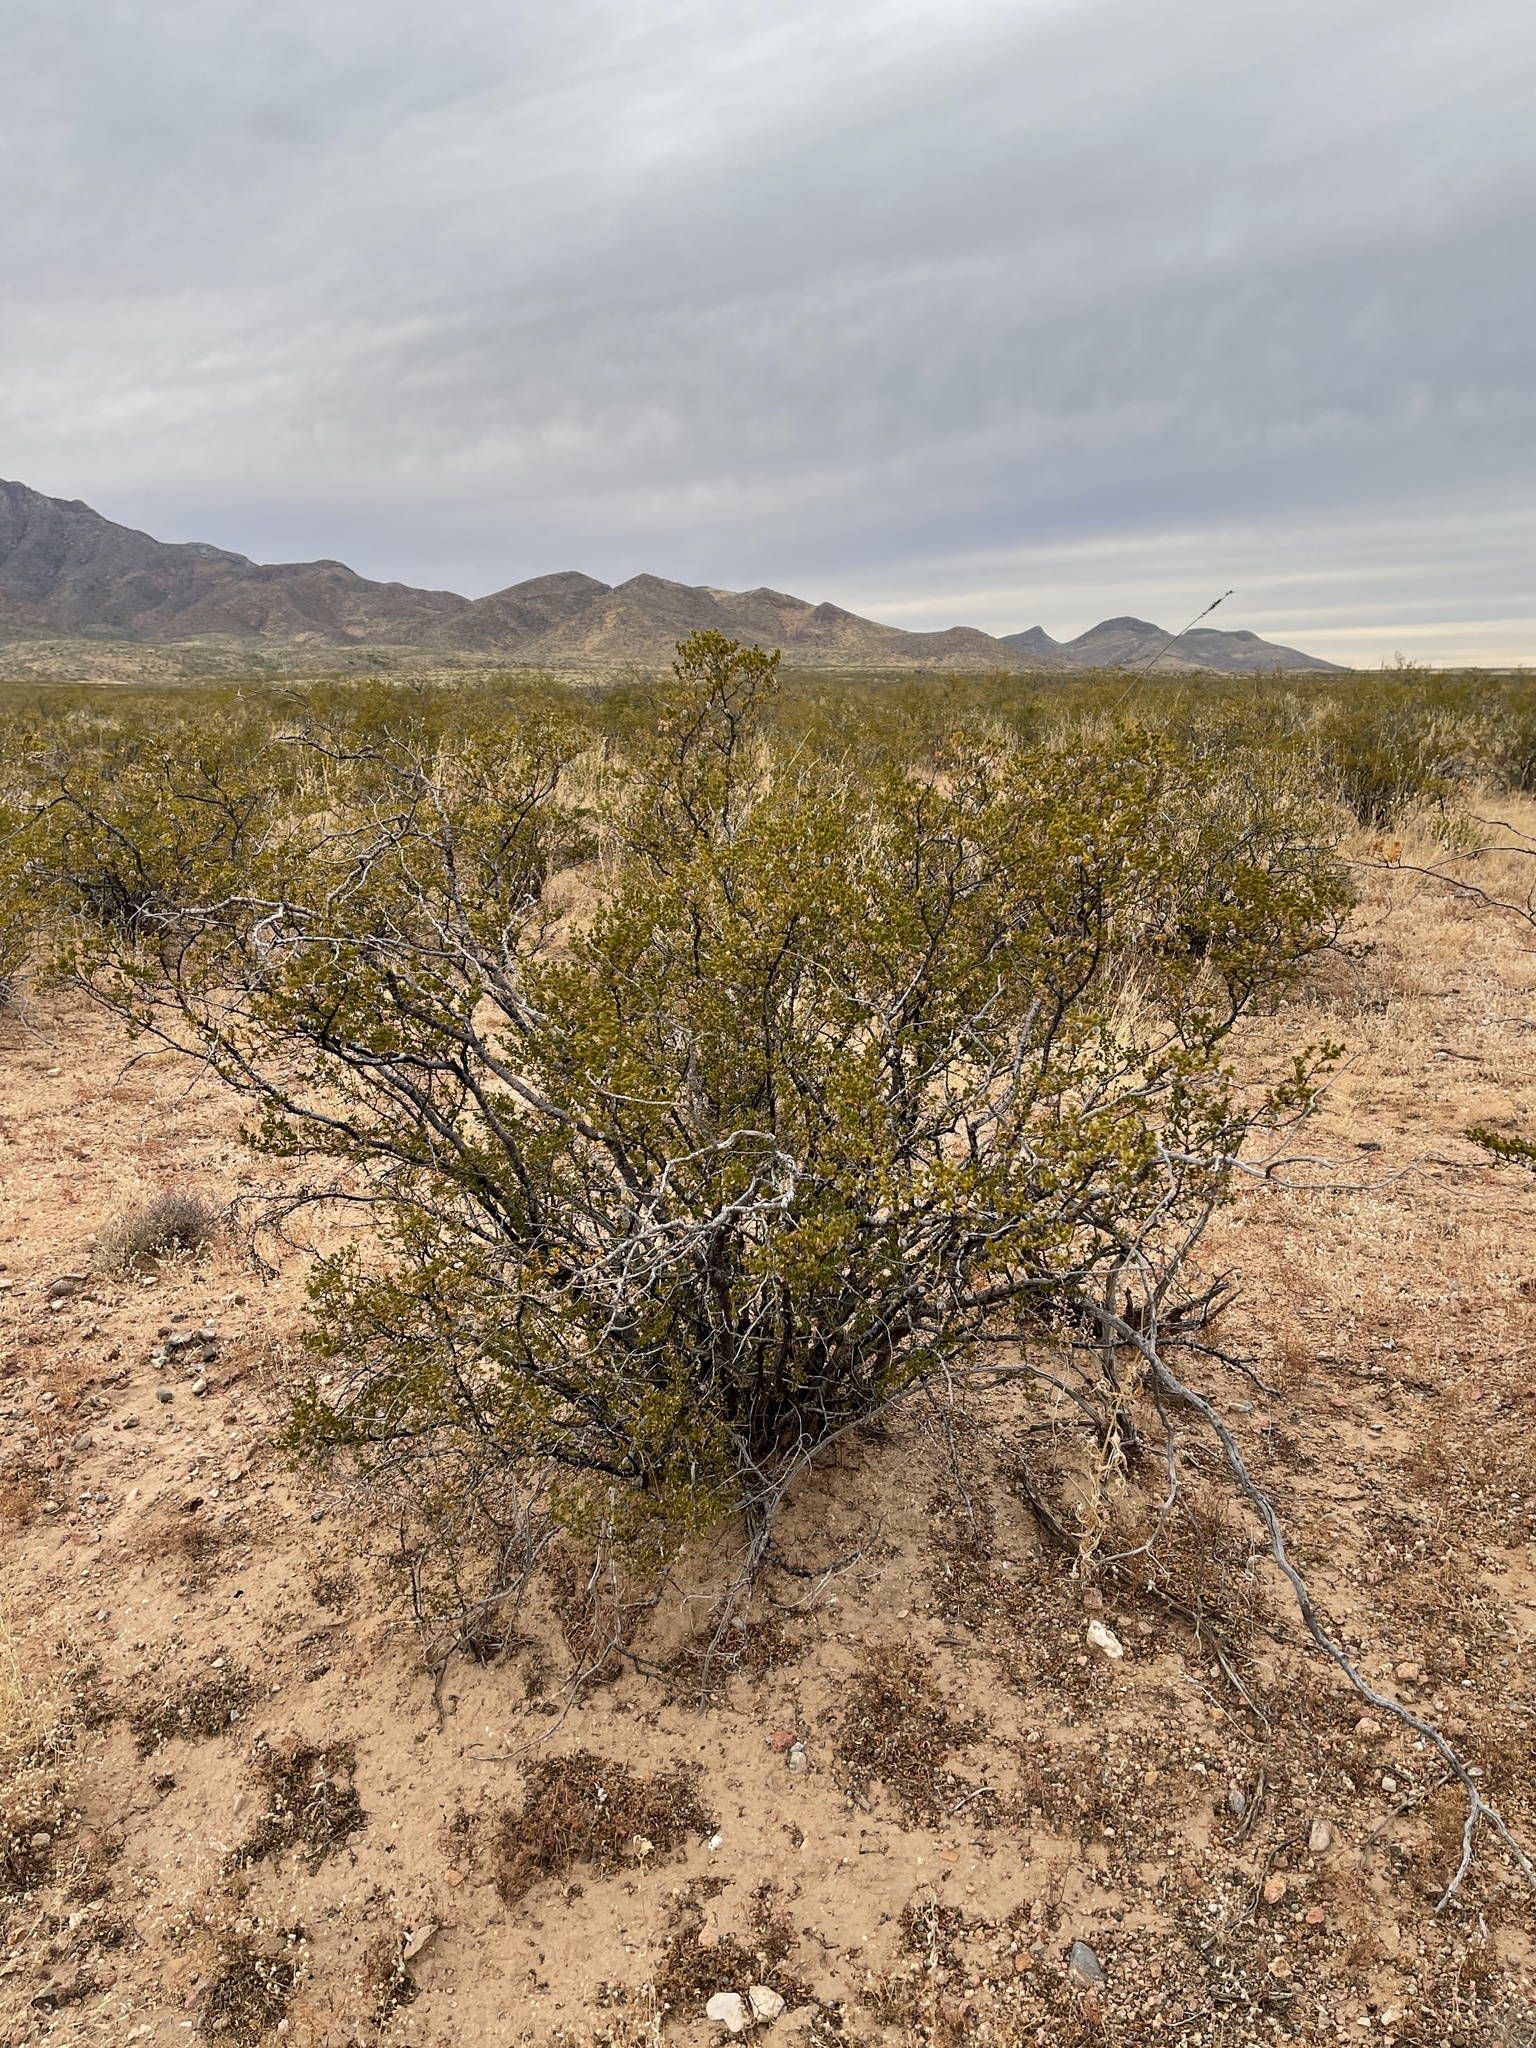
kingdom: Plantae
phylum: Tracheophyta
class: Magnoliopsida
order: Zygophyllales
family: Zygophyllaceae
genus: Larrea
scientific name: Larrea tridentata
